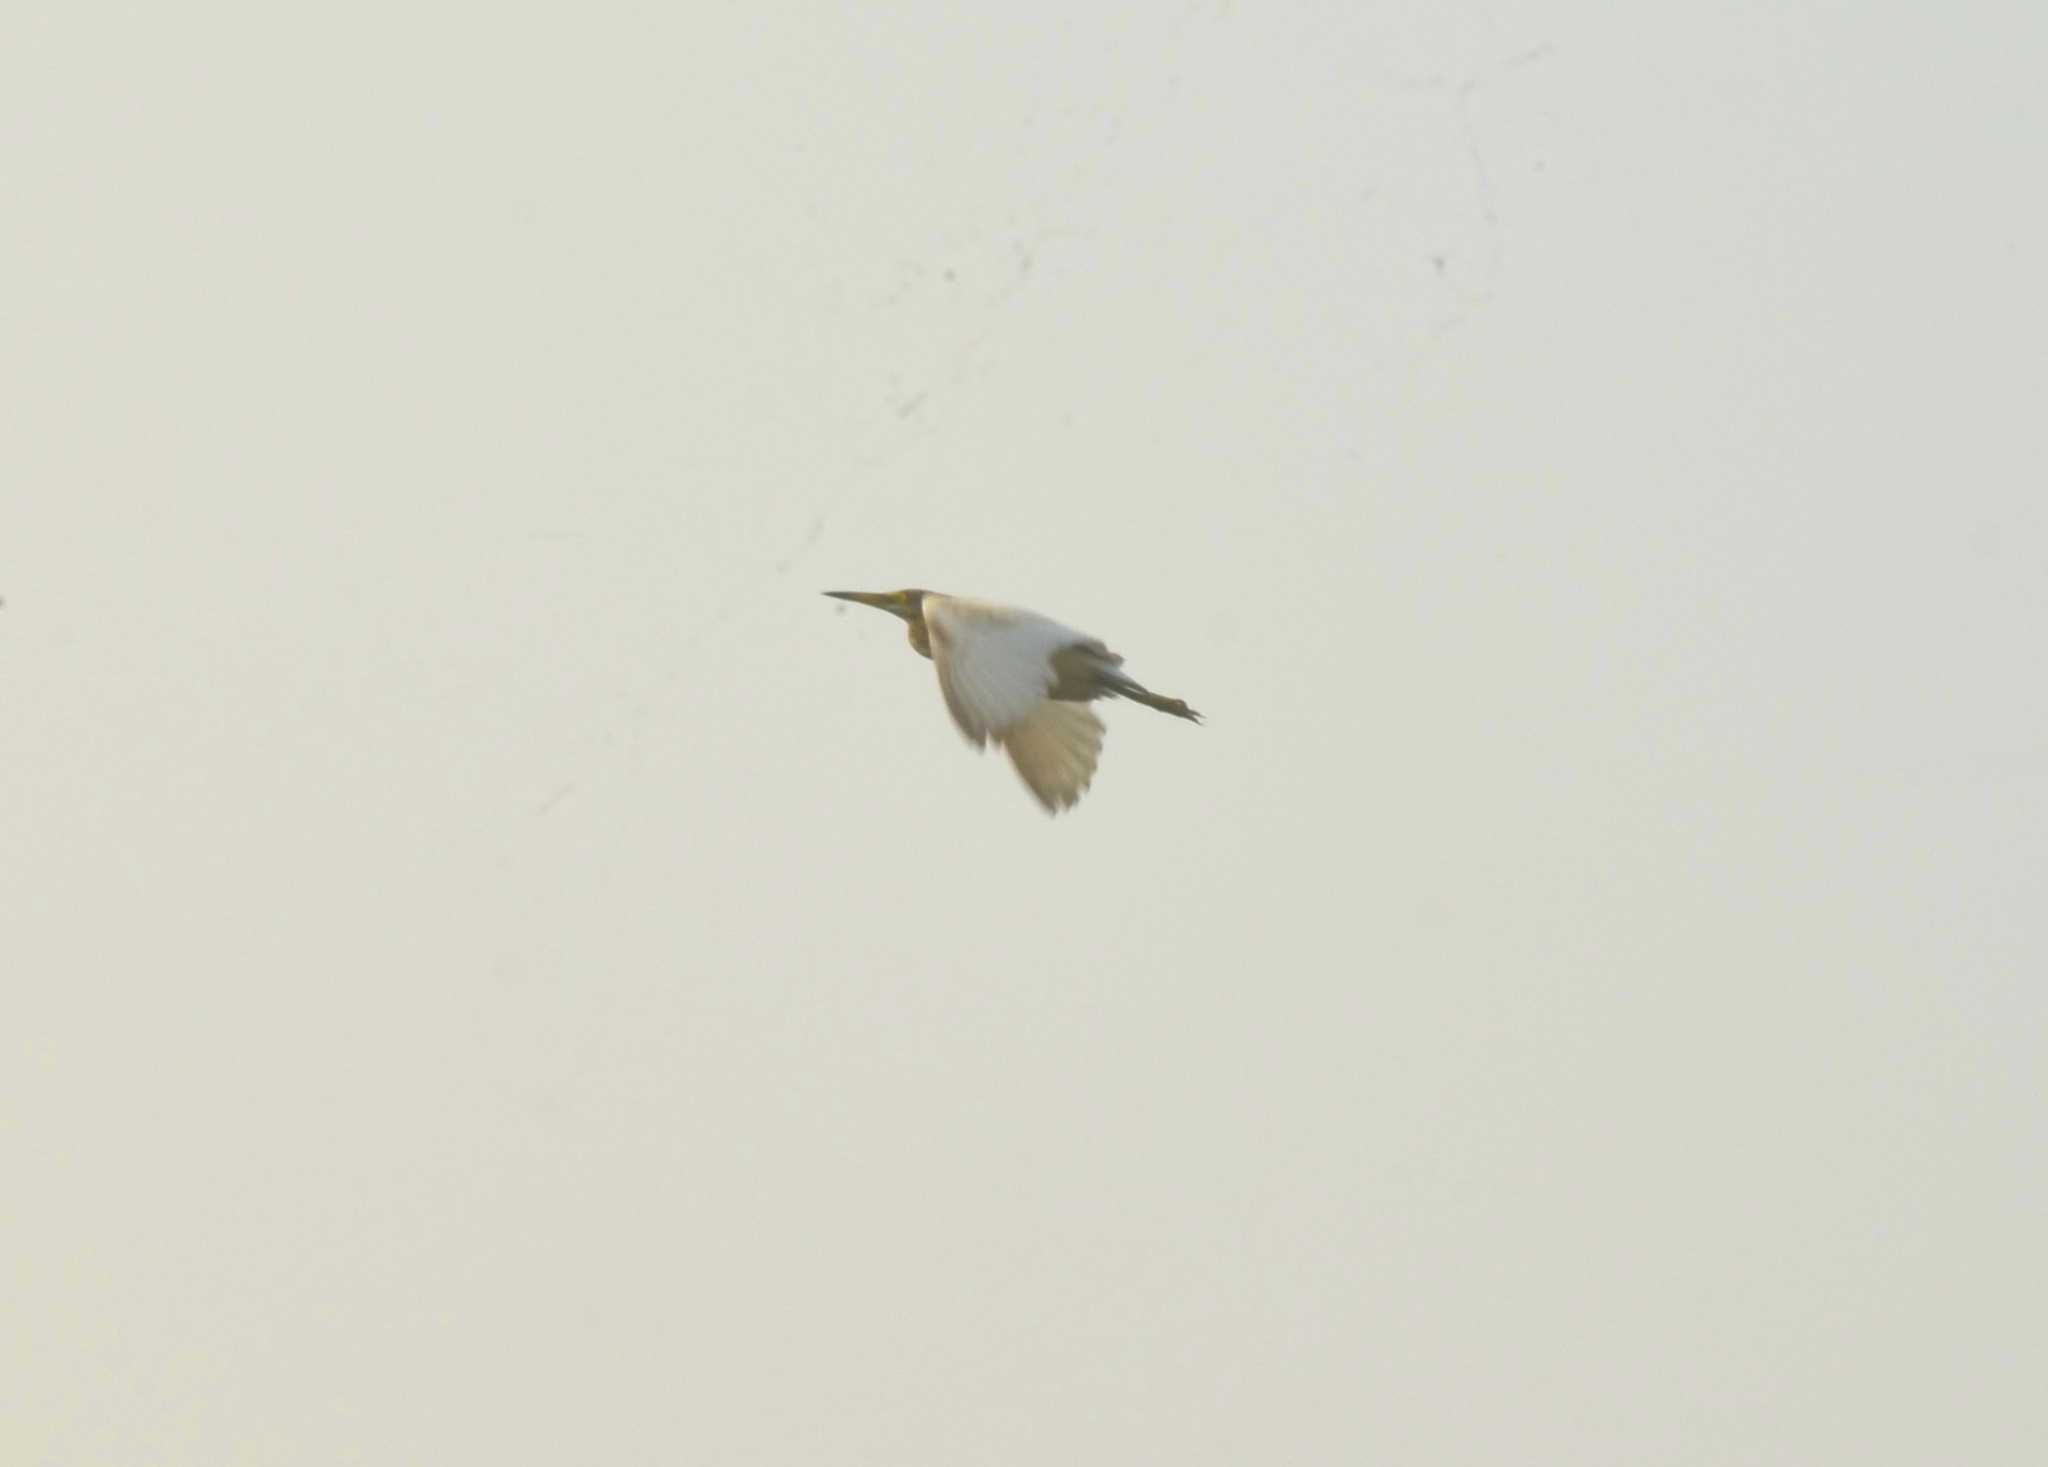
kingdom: Animalia
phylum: Chordata
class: Aves
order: Pelecaniformes
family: Ardeidae
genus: Ardeola
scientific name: Ardeola grayii
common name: Indian pond heron
